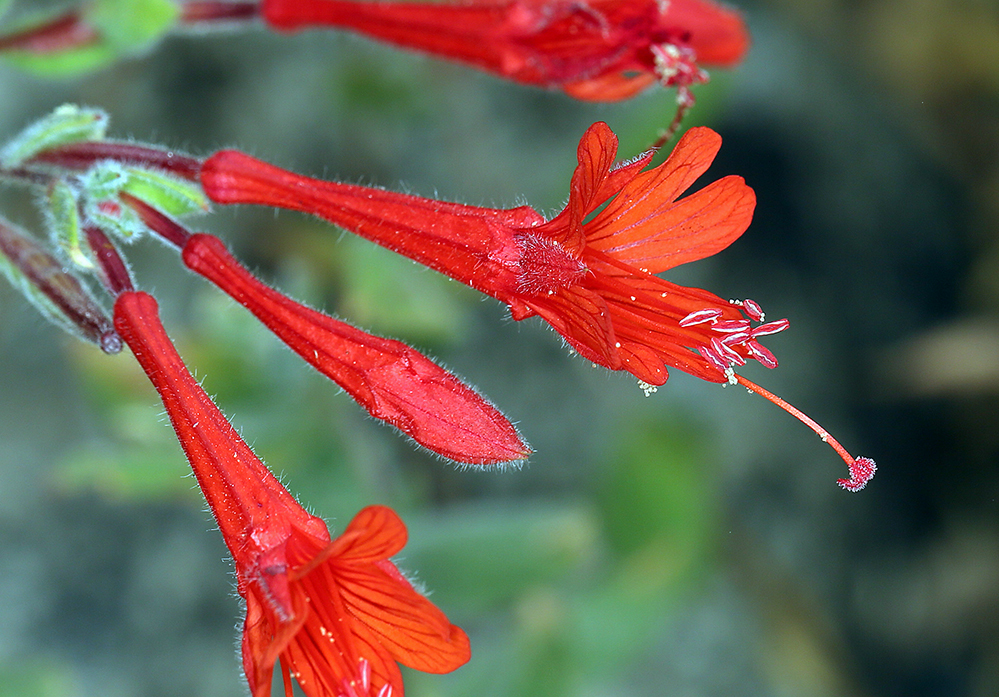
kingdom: Plantae
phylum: Tracheophyta
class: Magnoliopsida
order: Myrtales
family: Onagraceae
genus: Epilobium
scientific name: Epilobium canum
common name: California-fuchsia
